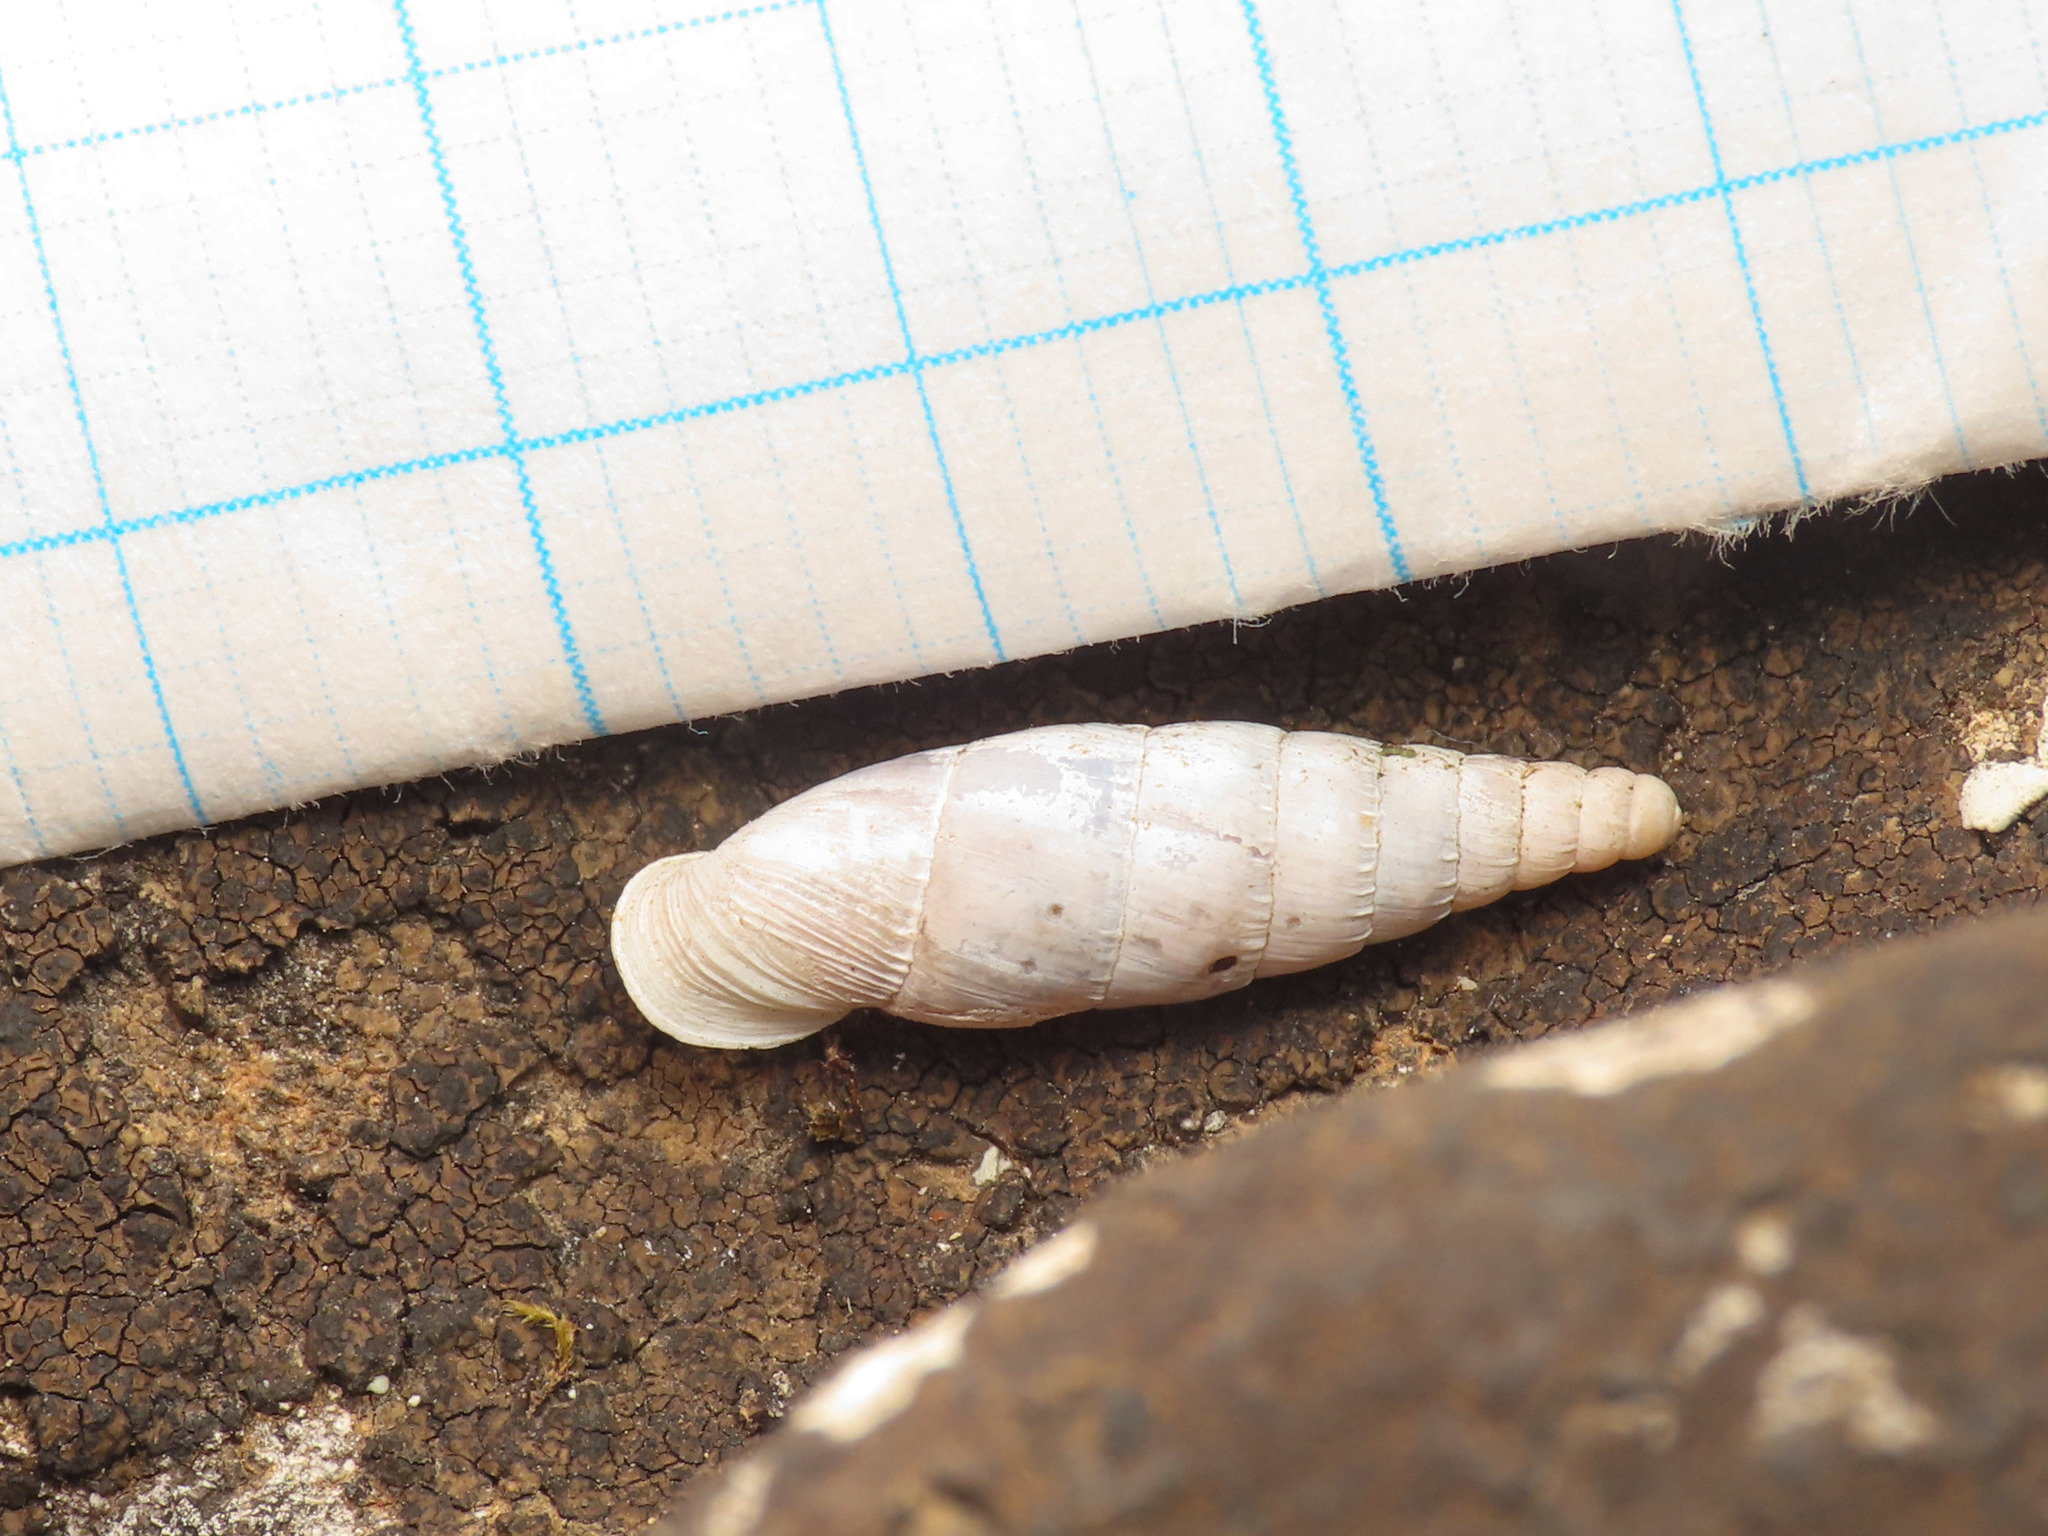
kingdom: Animalia
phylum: Mollusca
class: Gastropoda
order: Stylommatophora
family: Clausiliidae
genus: Leucostigma
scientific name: Leucostigma candidescens
